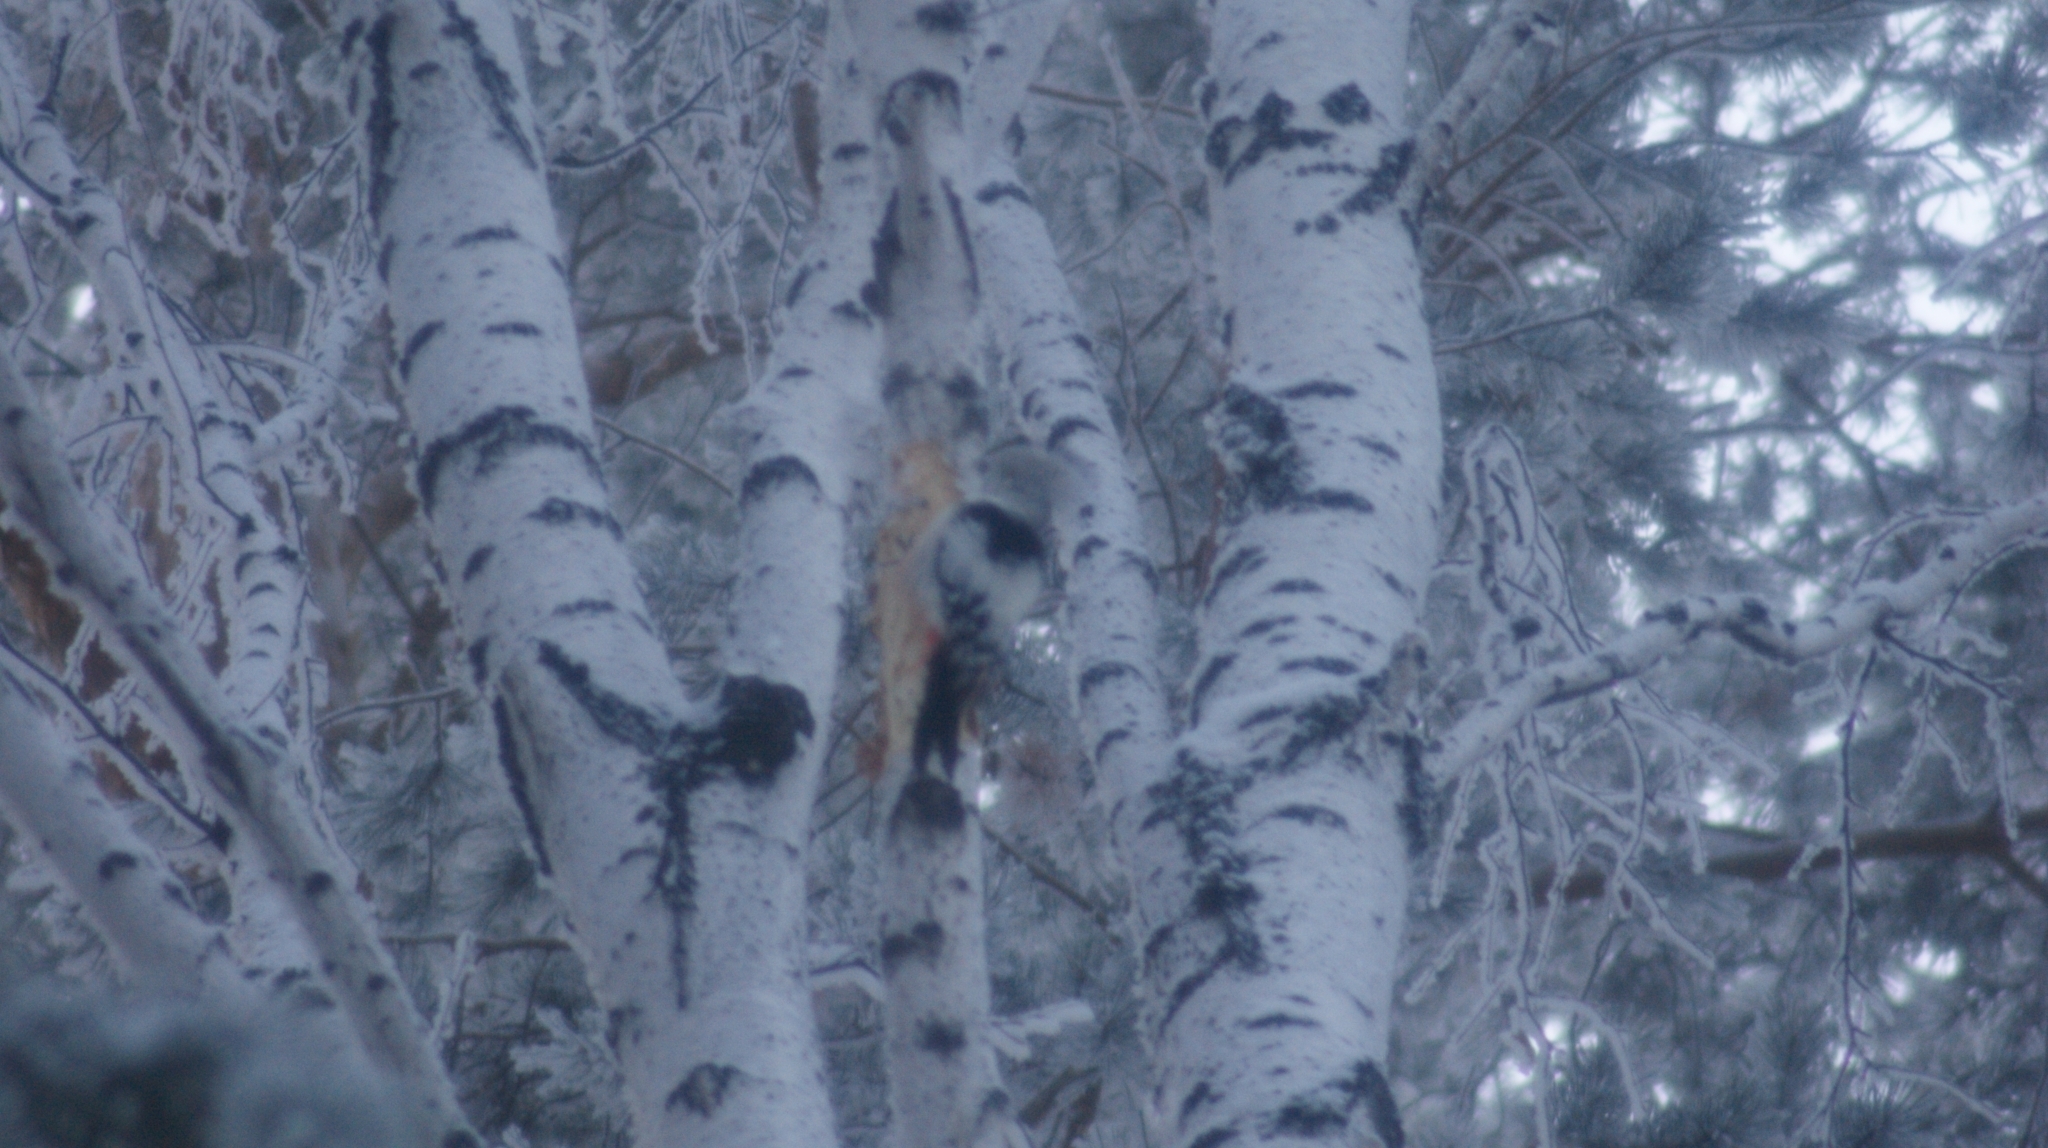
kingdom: Animalia
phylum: Chordata
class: Aves
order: Piciformes
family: Picidae
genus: Dendrocopos
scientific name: Dendrocopos leucotos
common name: White-backed woodpecker
